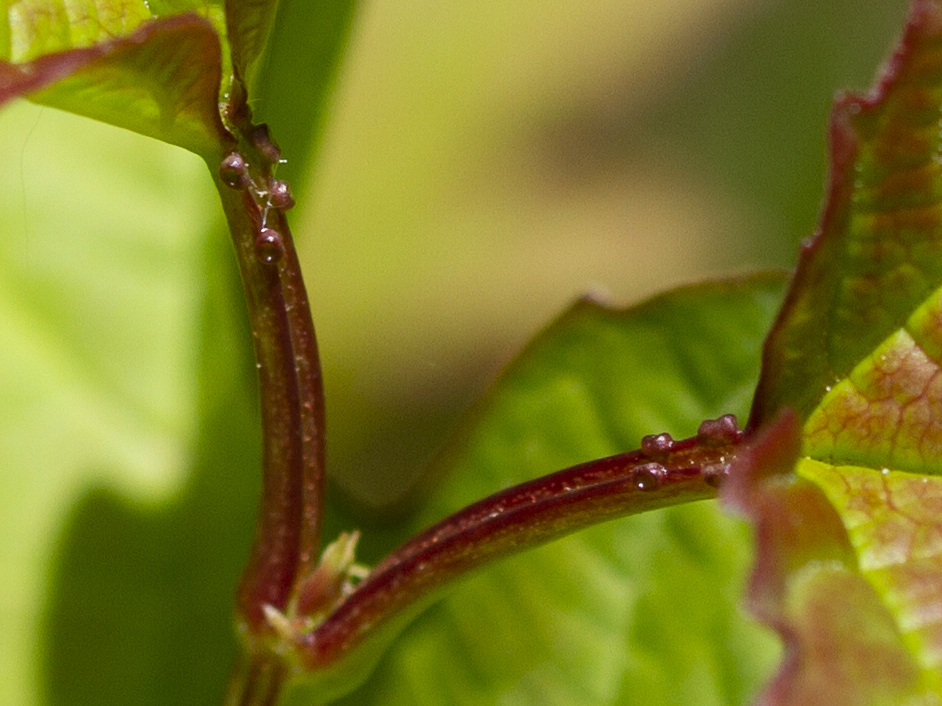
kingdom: Plantae
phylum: Tracheophyta
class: Magnoliopsida
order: Dipsacales
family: Viburnaceae
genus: Viburnum
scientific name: Viburnum opulus
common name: Guelder-rose
